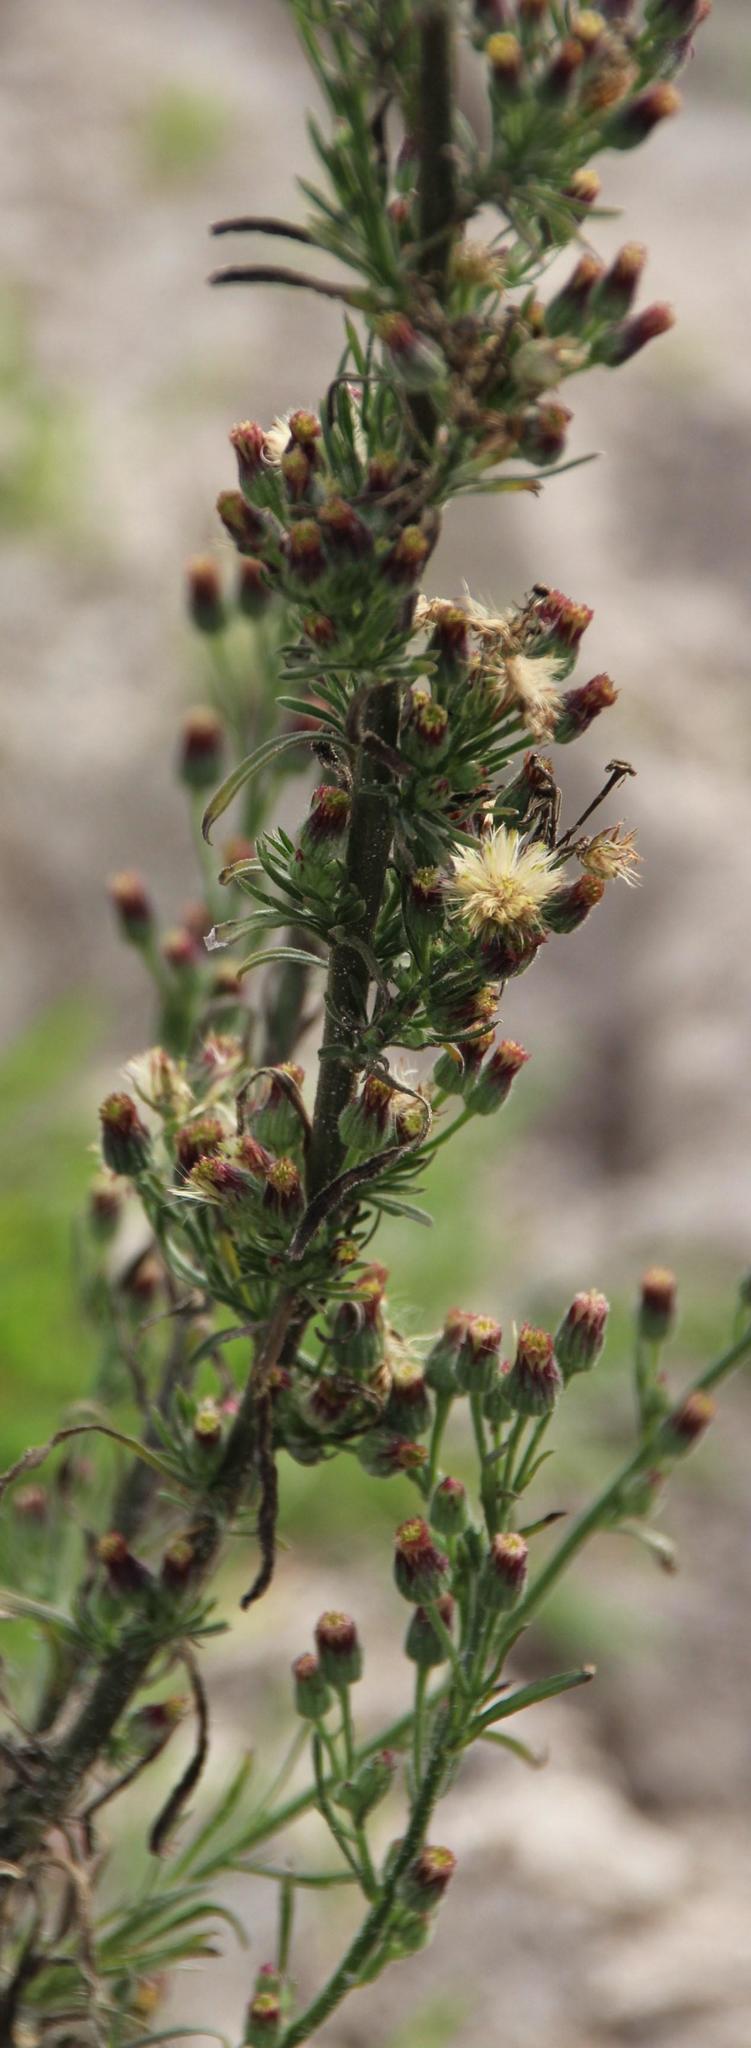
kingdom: Plantae
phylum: Tracheophyta
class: Magnoliopsida
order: Asterales
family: Asteraceae
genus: Erigeron
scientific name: Erigeron bonariensis
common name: Argentine fleabane
